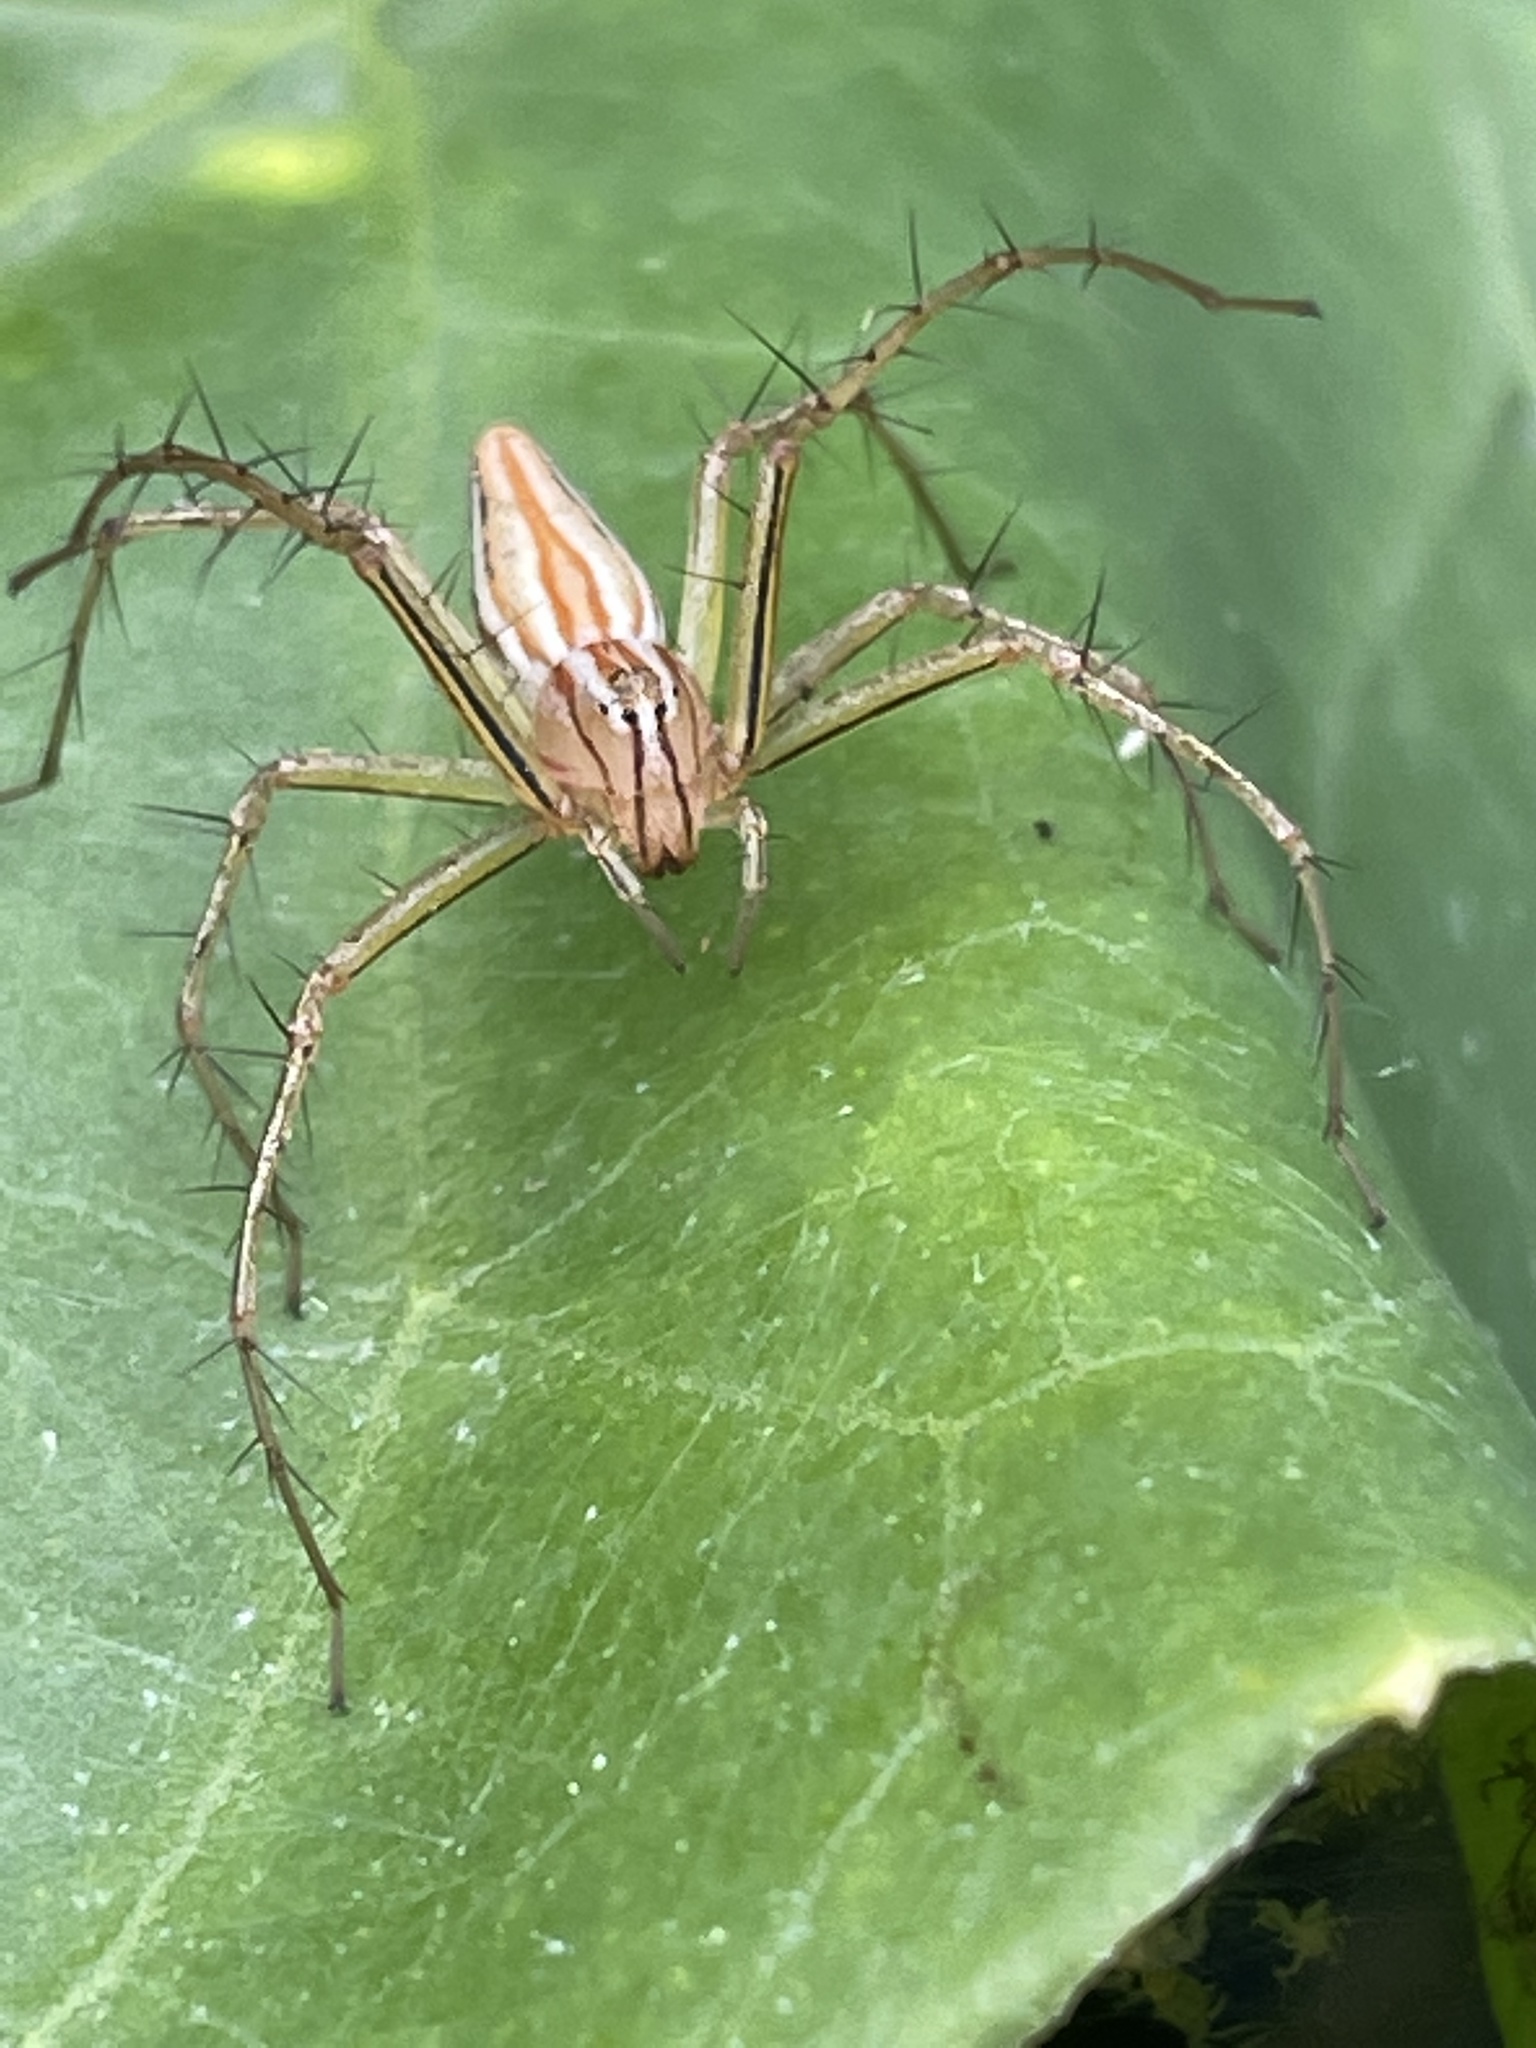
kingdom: Animalia
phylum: Arthropoda
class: Arachnida
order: Araneae
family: Oxyopidae
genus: Oxyopes
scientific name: Oxyopes macilentus
